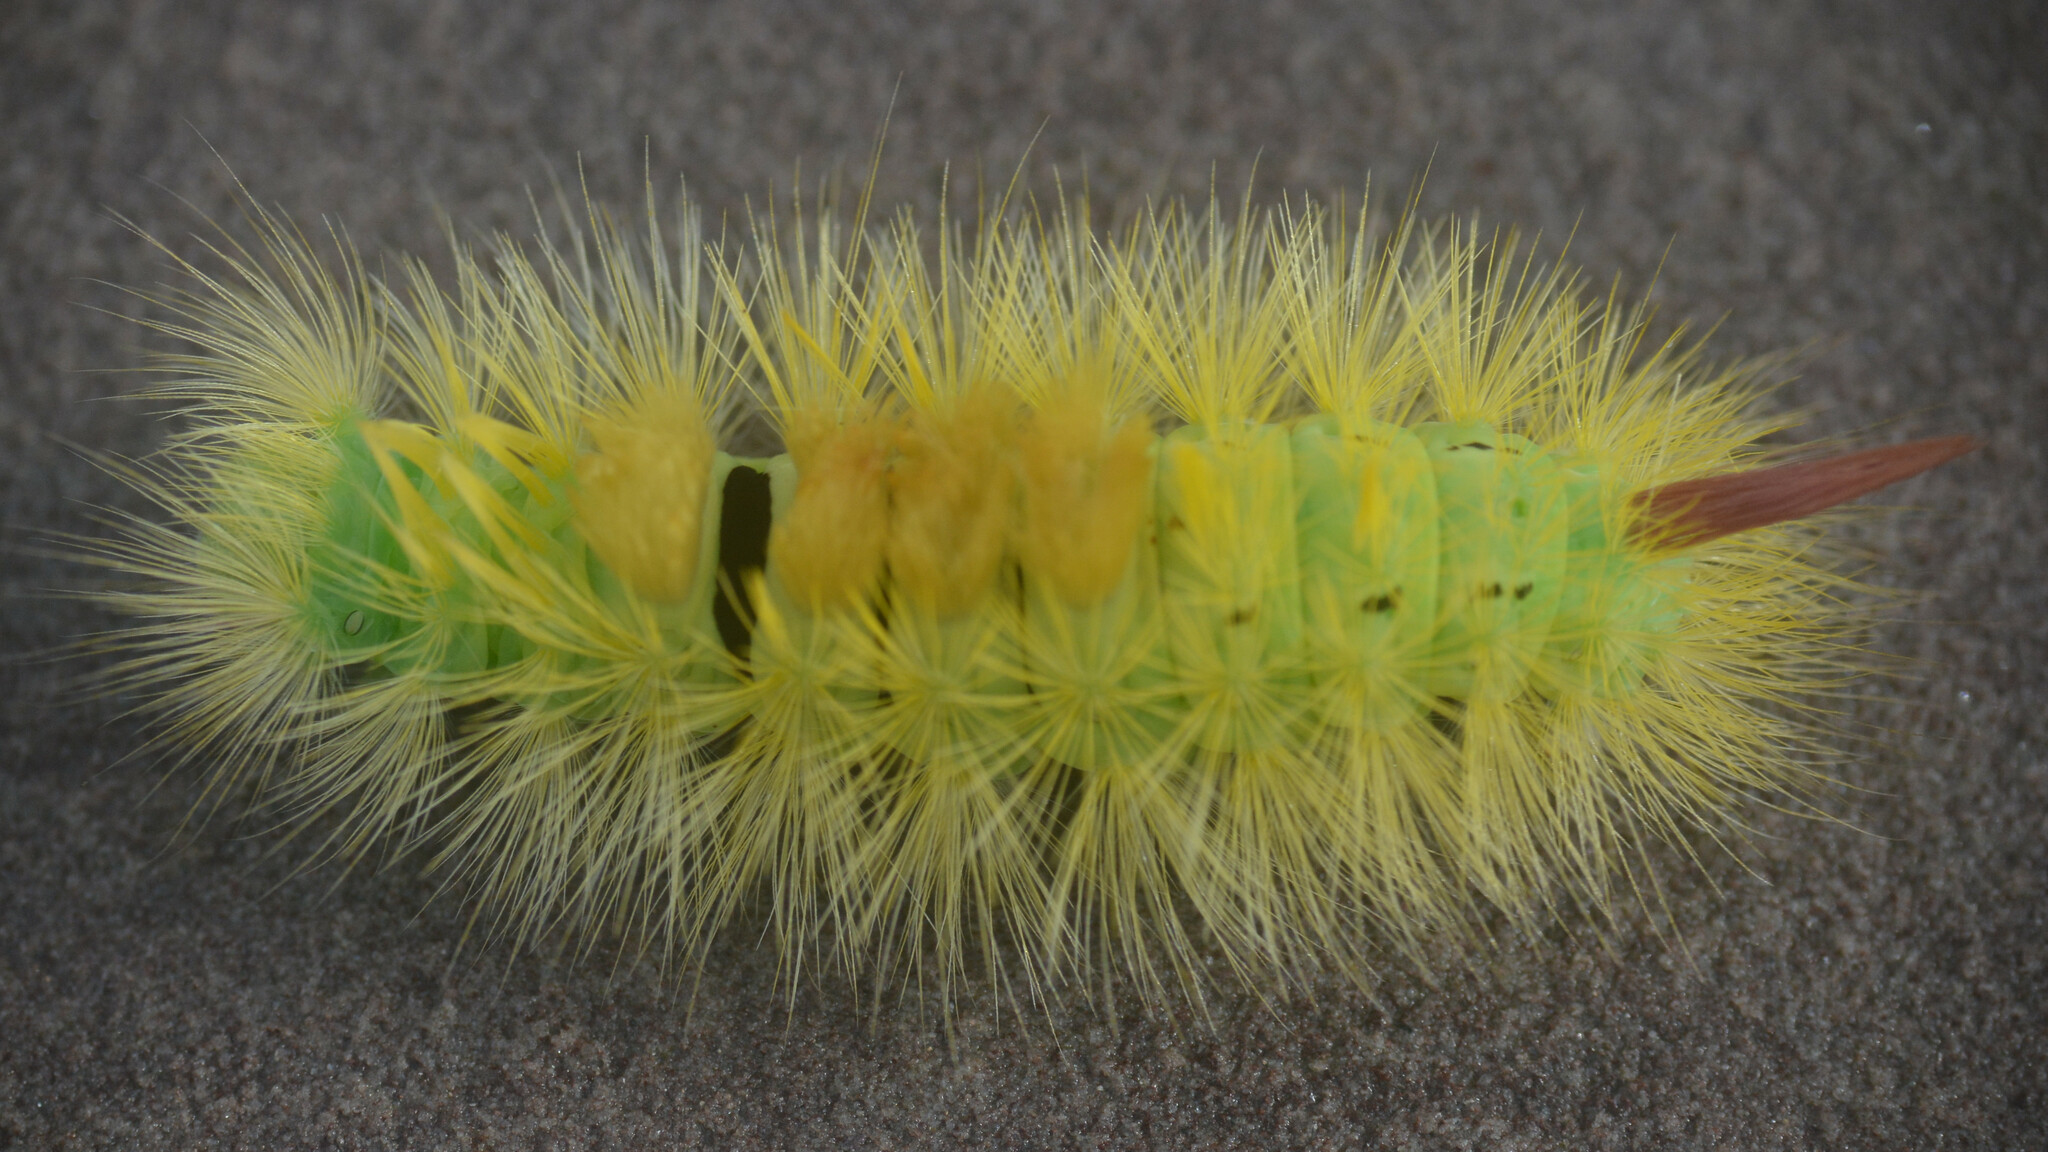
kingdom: Animalia
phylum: Arthropoda
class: Insecta
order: Lepidoptera
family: Erebidae
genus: Calliteara
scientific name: Calliteara pudibunda
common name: Pale tussock
